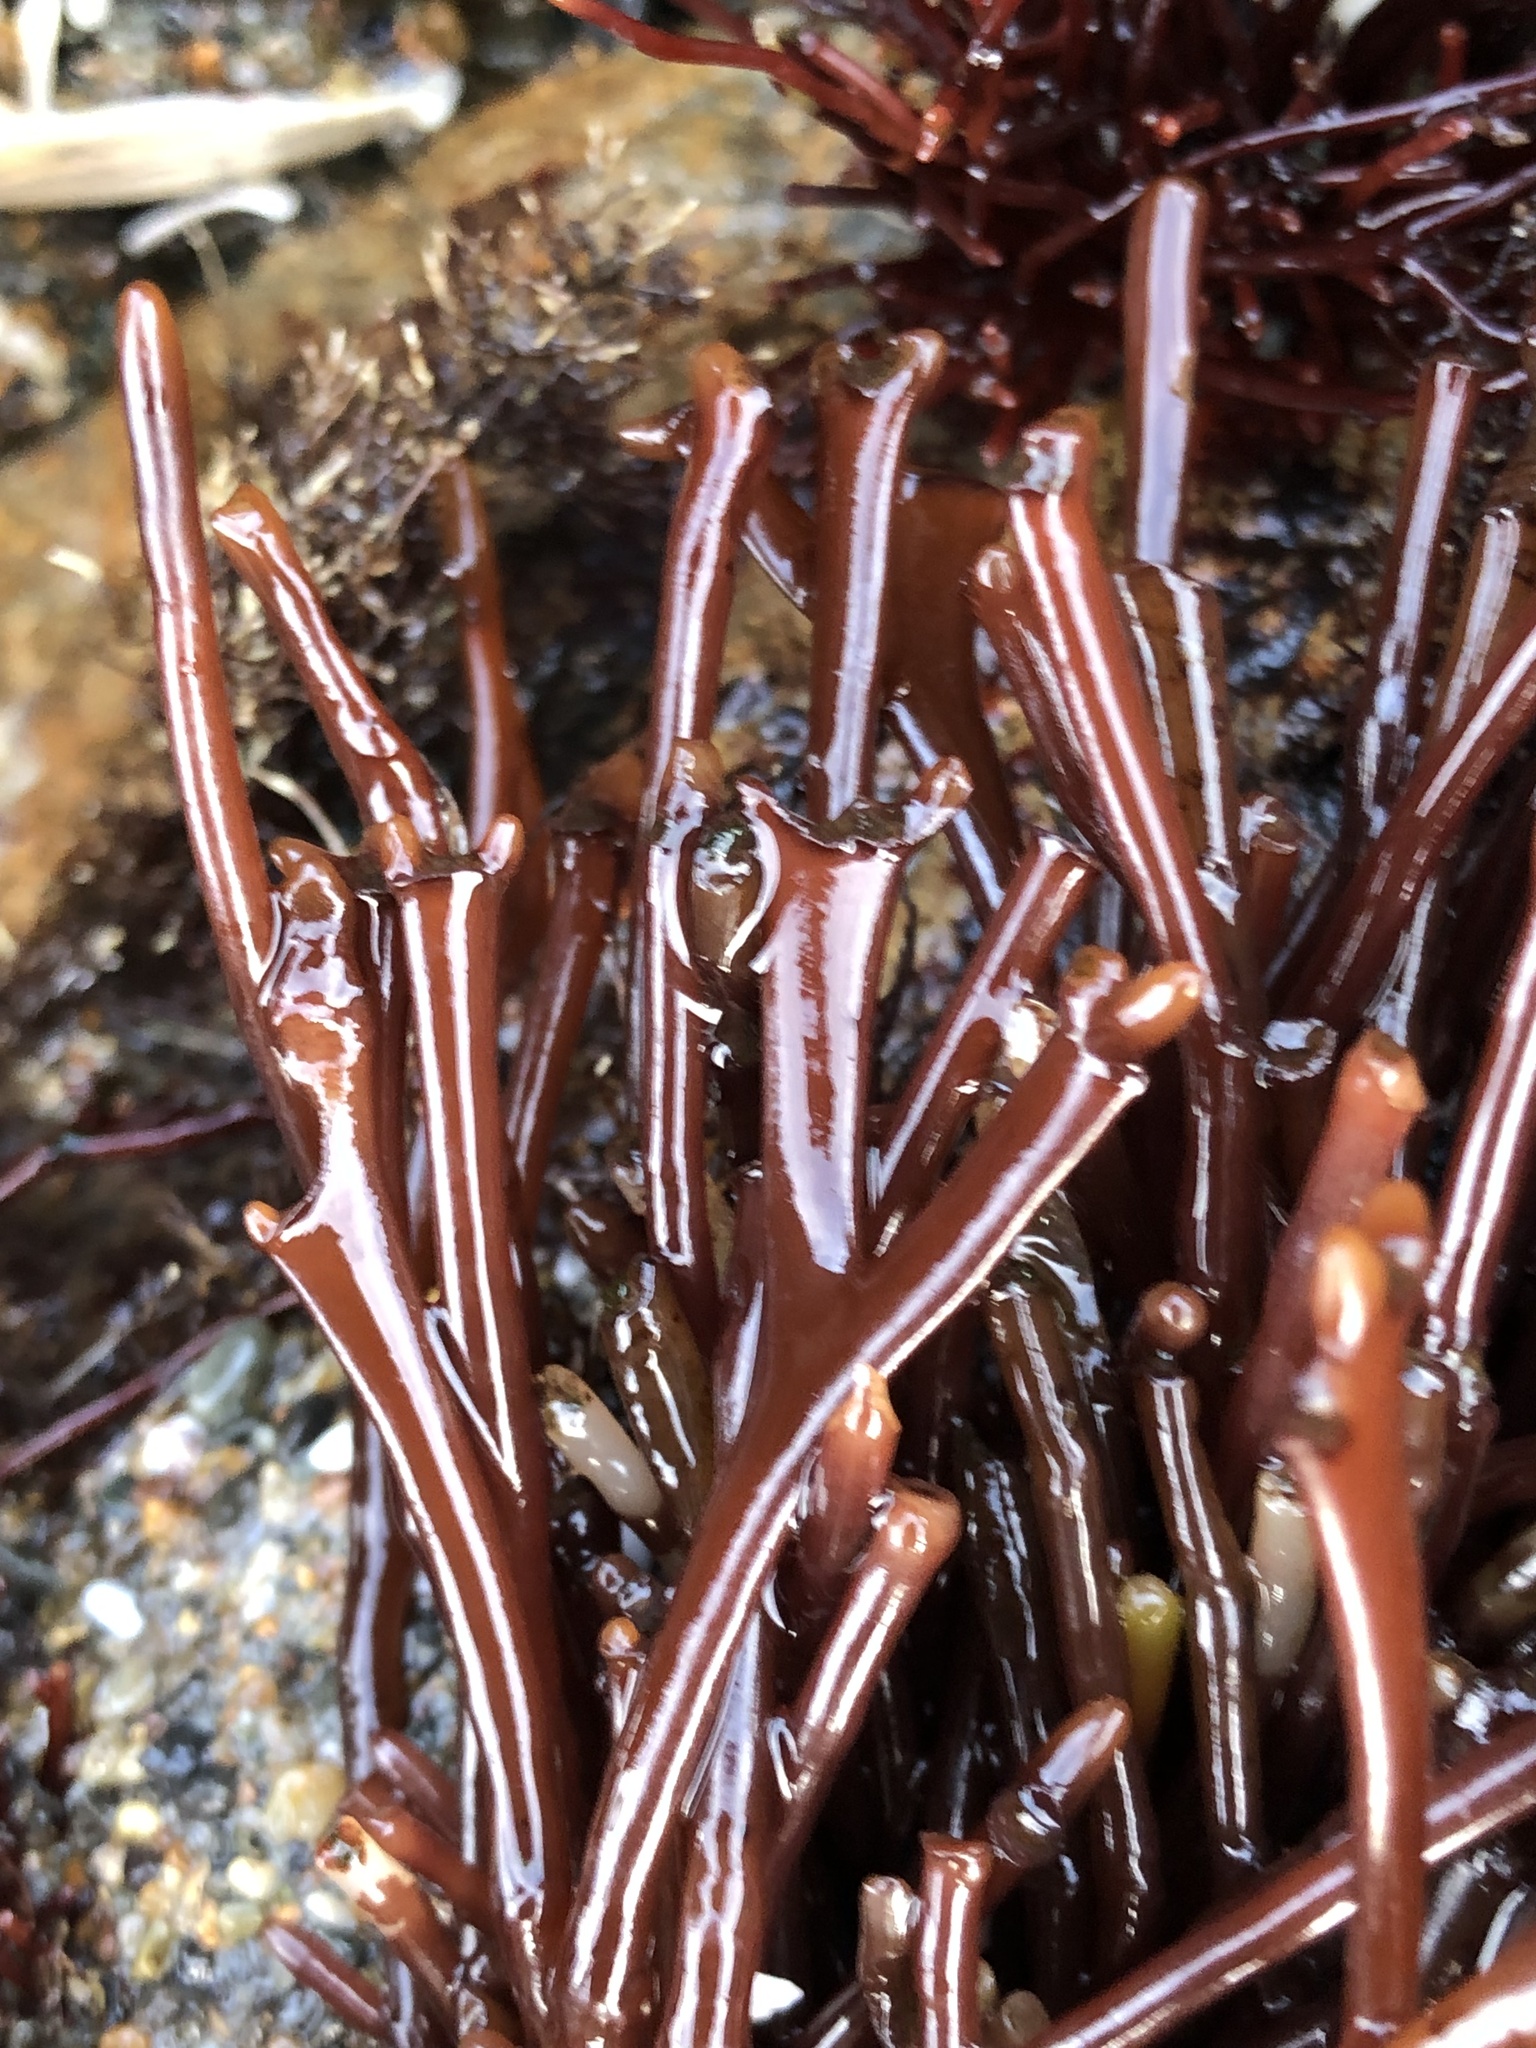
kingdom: Plantae
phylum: Rhodophyta
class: Florideophyceae
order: Gigartinales
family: Phyllophoraceae
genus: Ahnfeltiopsis
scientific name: Ahnfeltiopsis linearis
